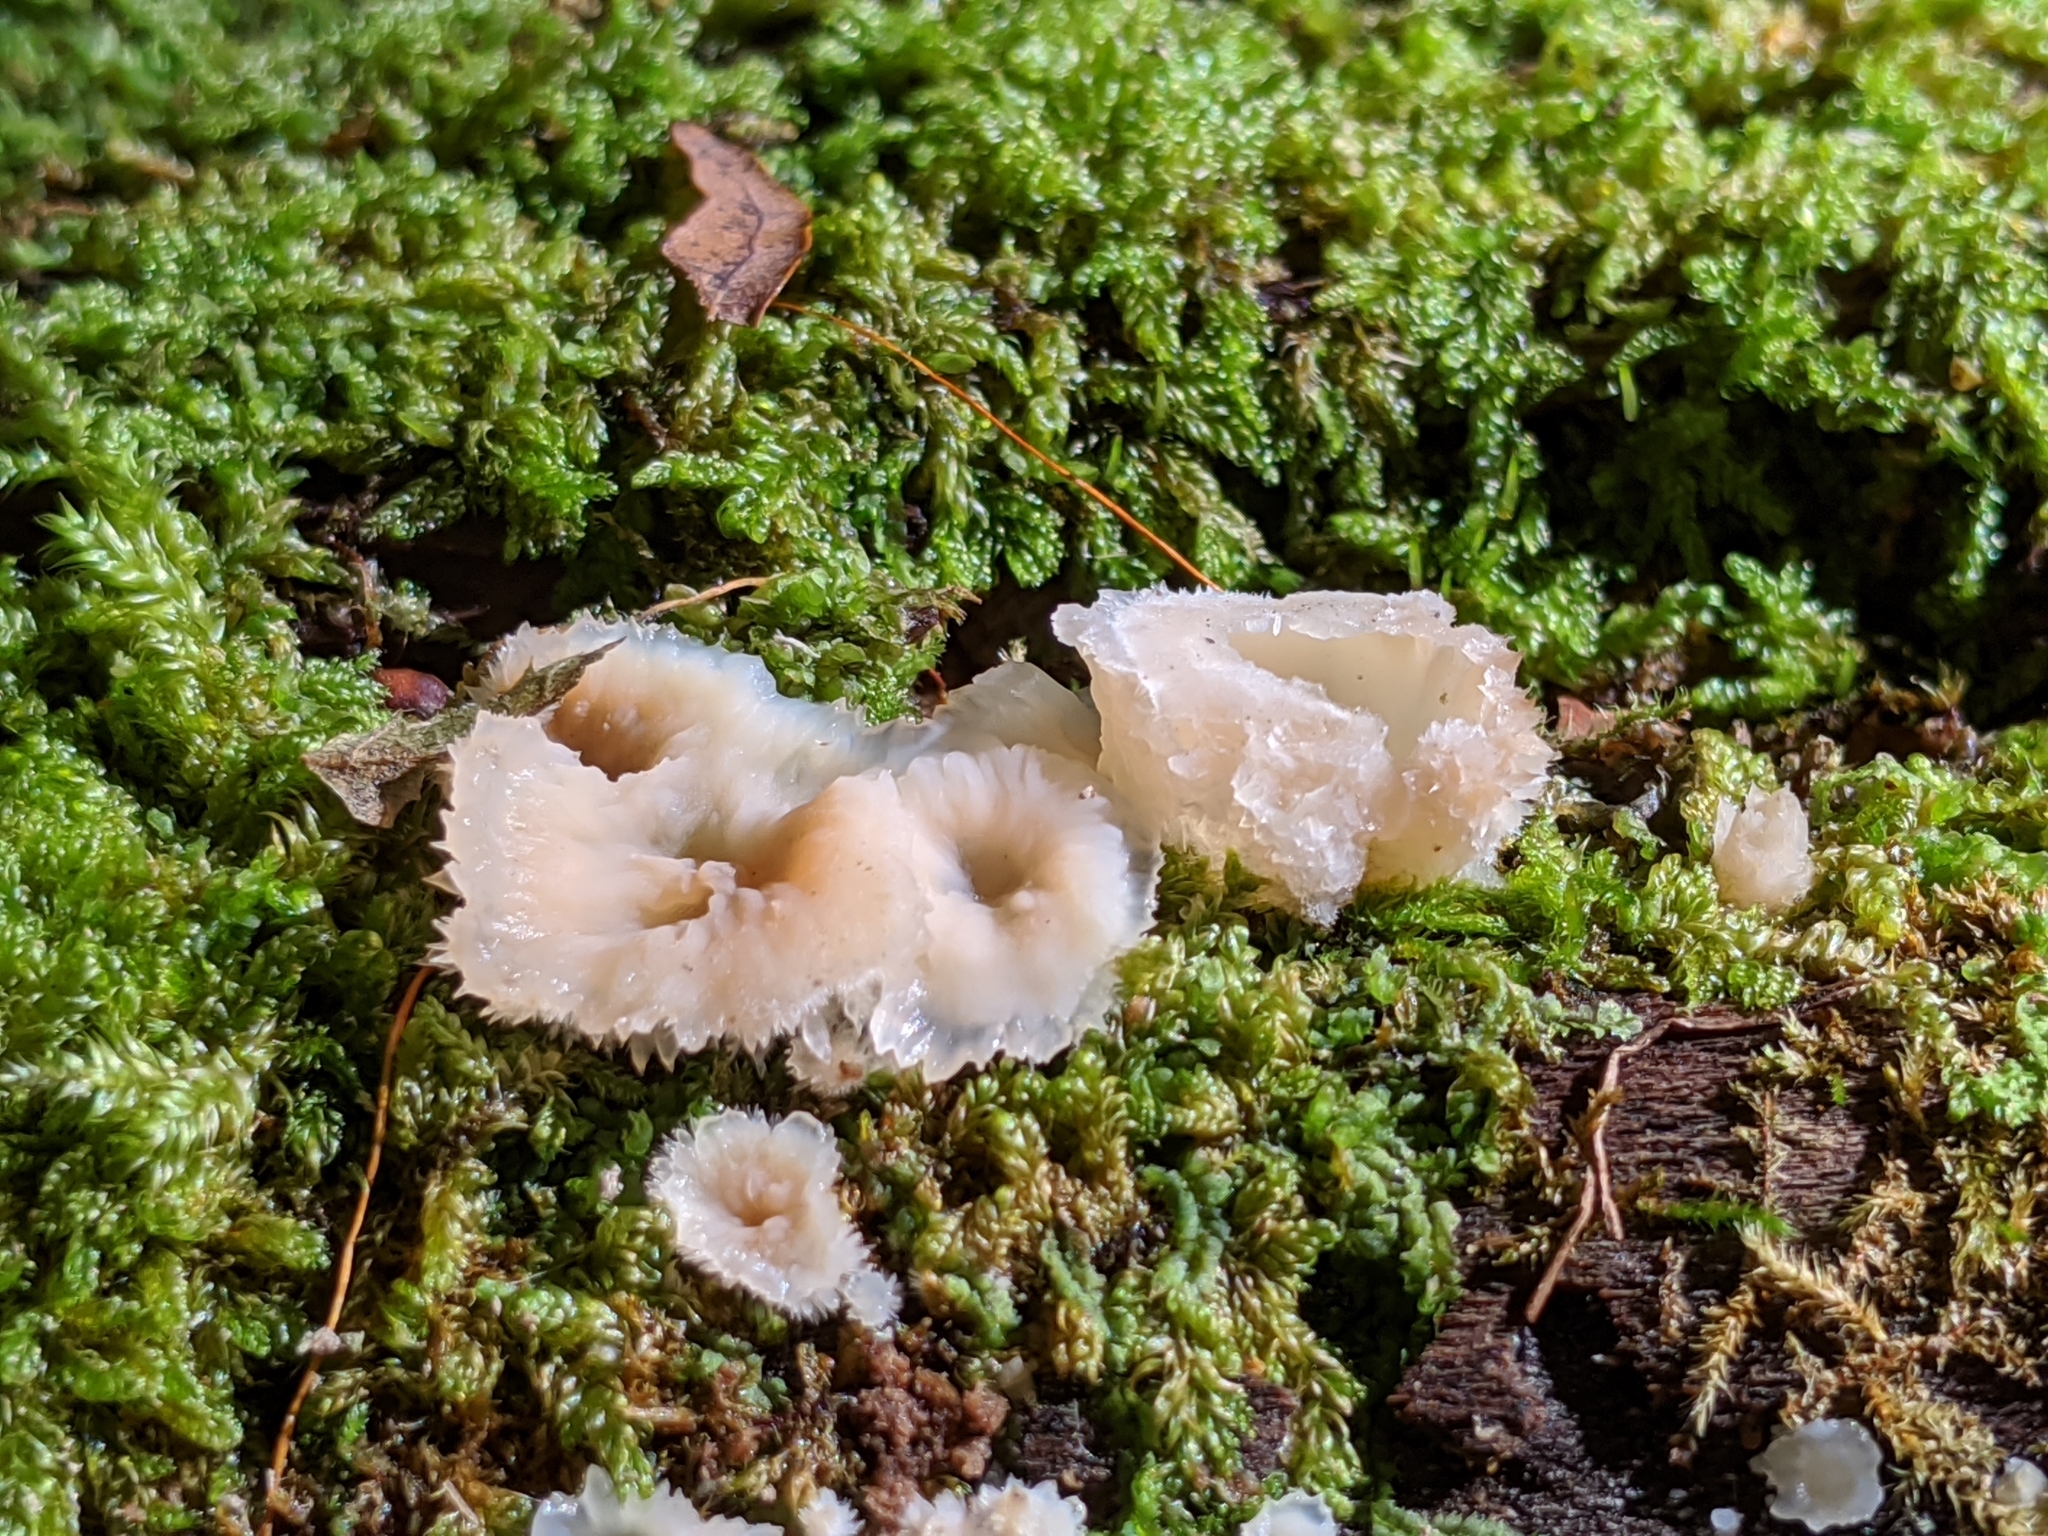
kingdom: Fungi
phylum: Basidiomycota
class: Agaricomycetes
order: Polyporales
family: Meruliaceae
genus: Phlebia
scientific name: Phlebia tremellosa
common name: Jelly rot
